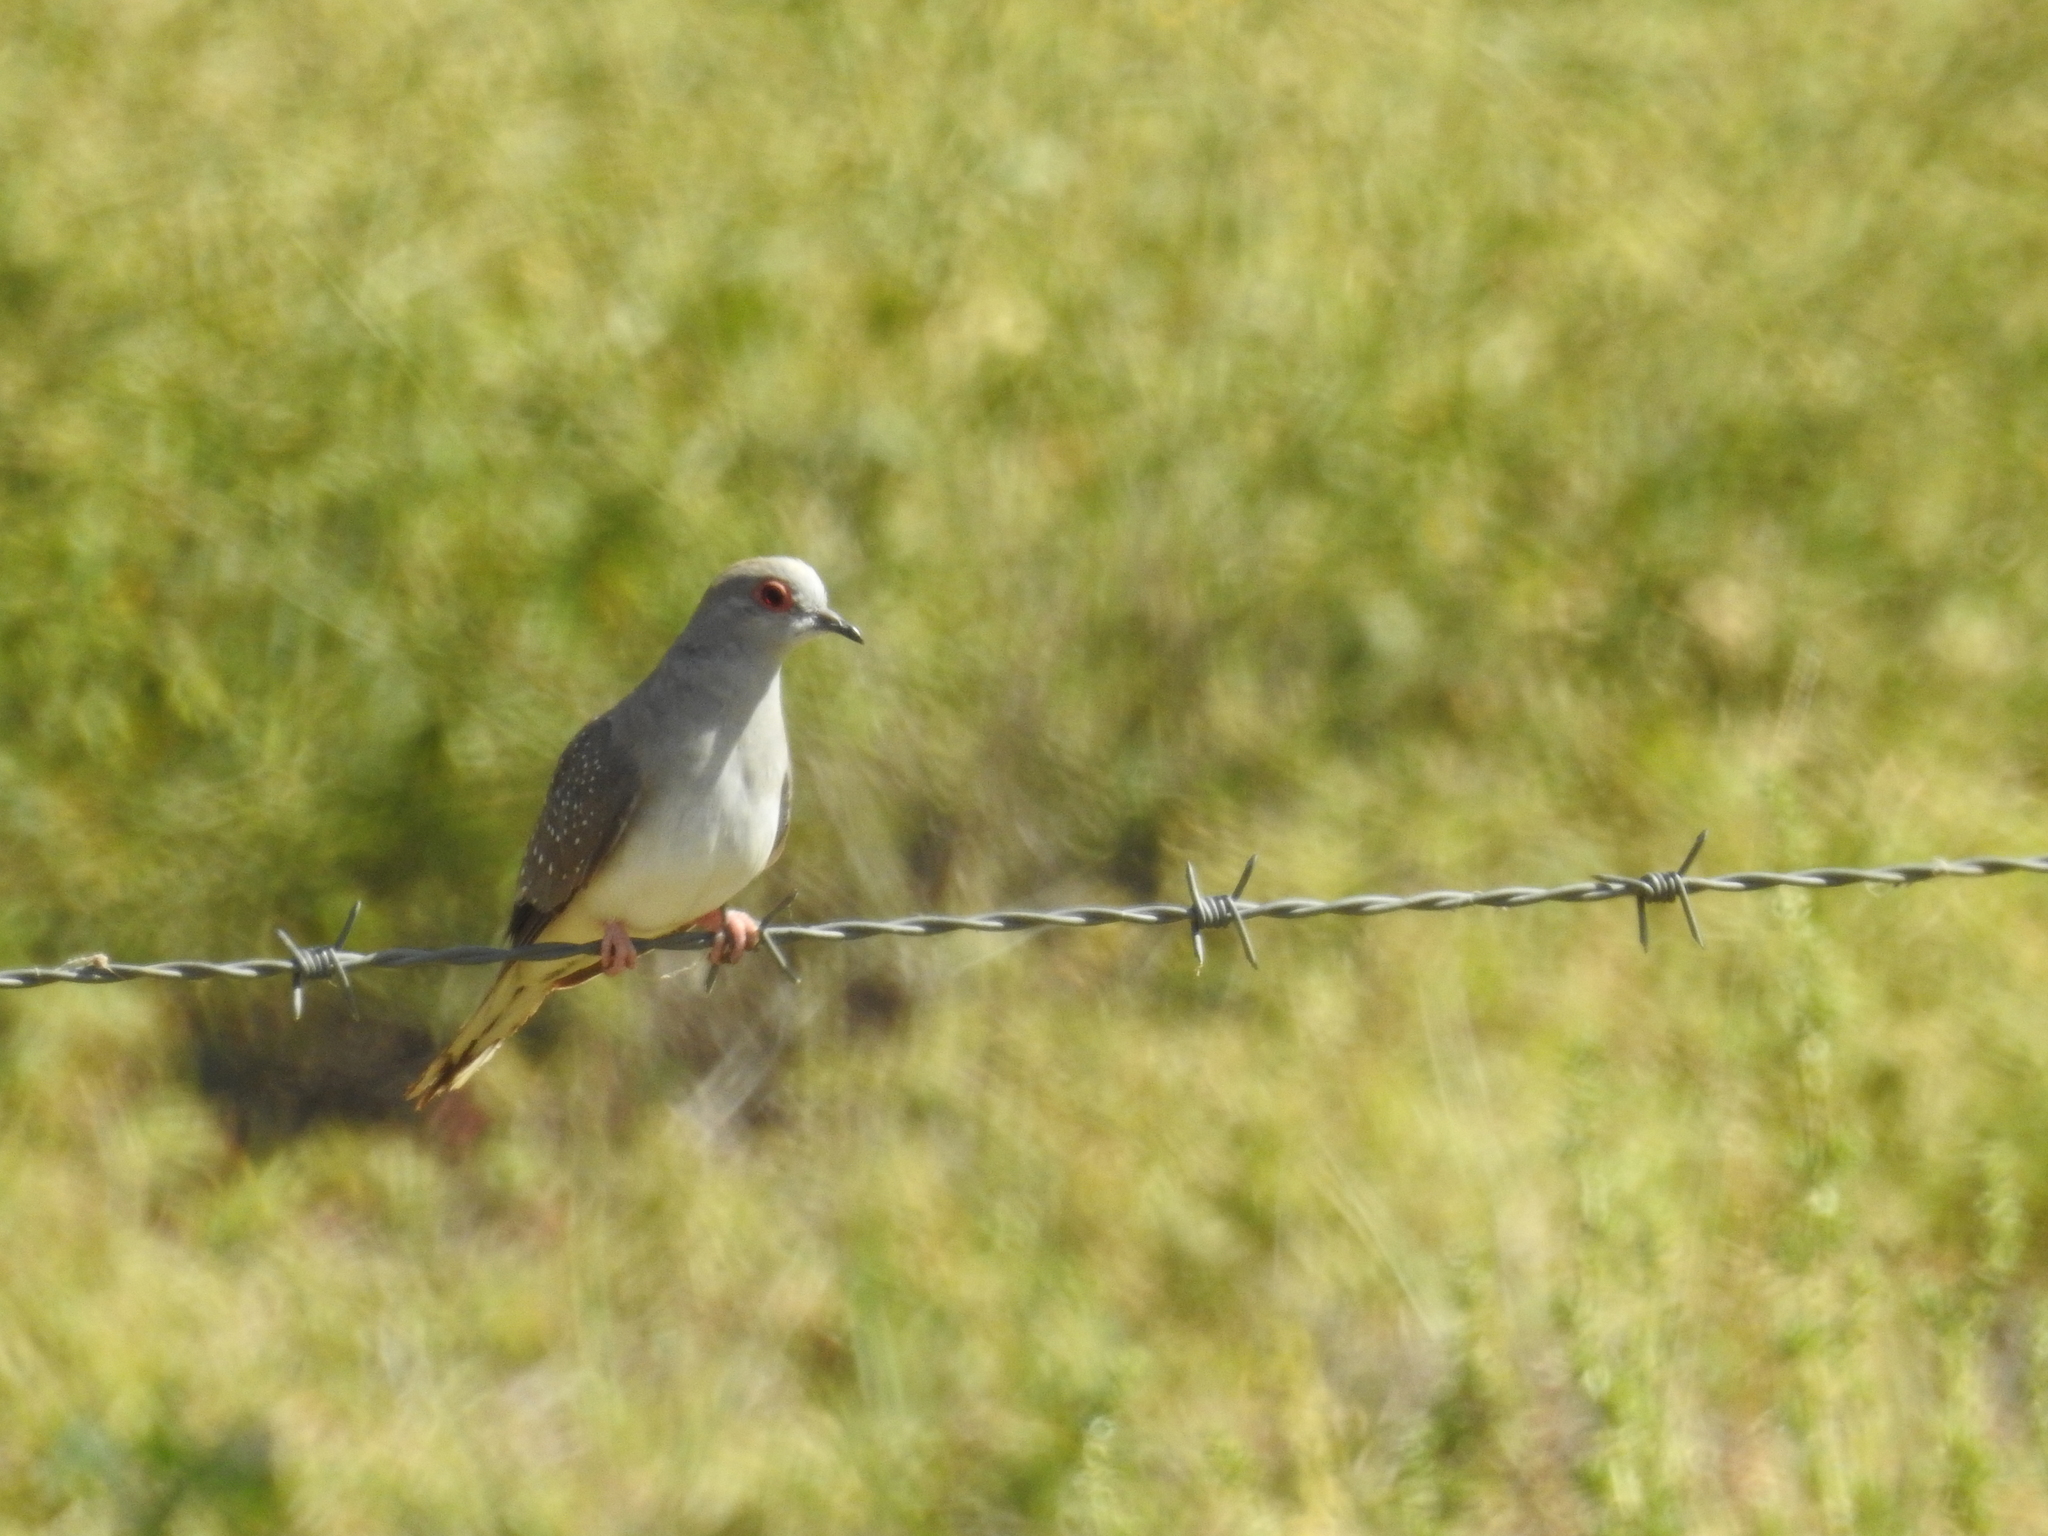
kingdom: Animalia
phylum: Chordata
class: Aves
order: Columbiformes
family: Columbidae
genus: Geopelia
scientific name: Geopelia cuneata
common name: Diamond dove
